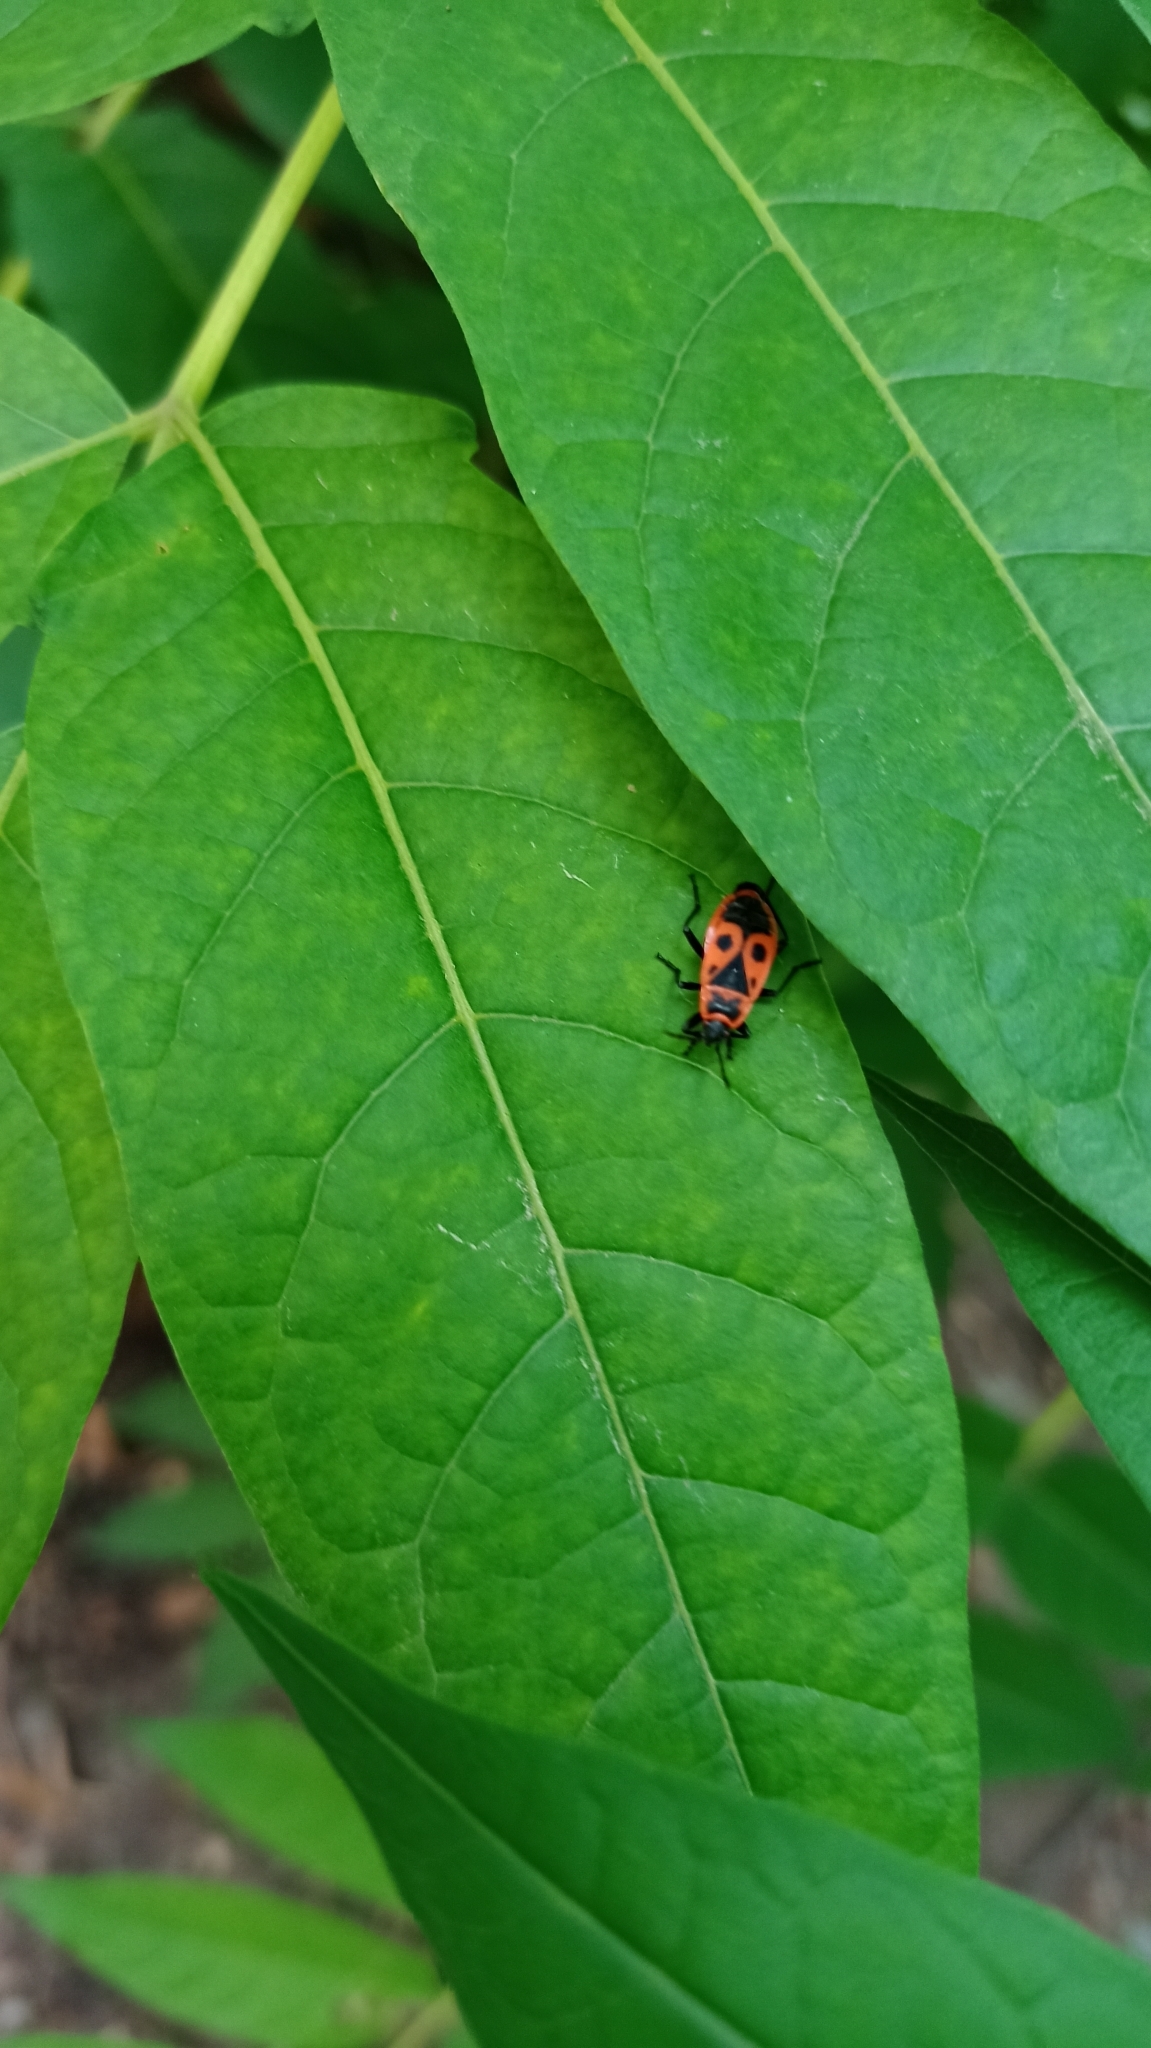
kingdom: Animalia
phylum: Arthropoda
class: Insecta
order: Hemiptera
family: Pyrrhocoridae
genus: Pyrrhocoris
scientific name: Pyrrhocoris apterus
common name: Firebug
